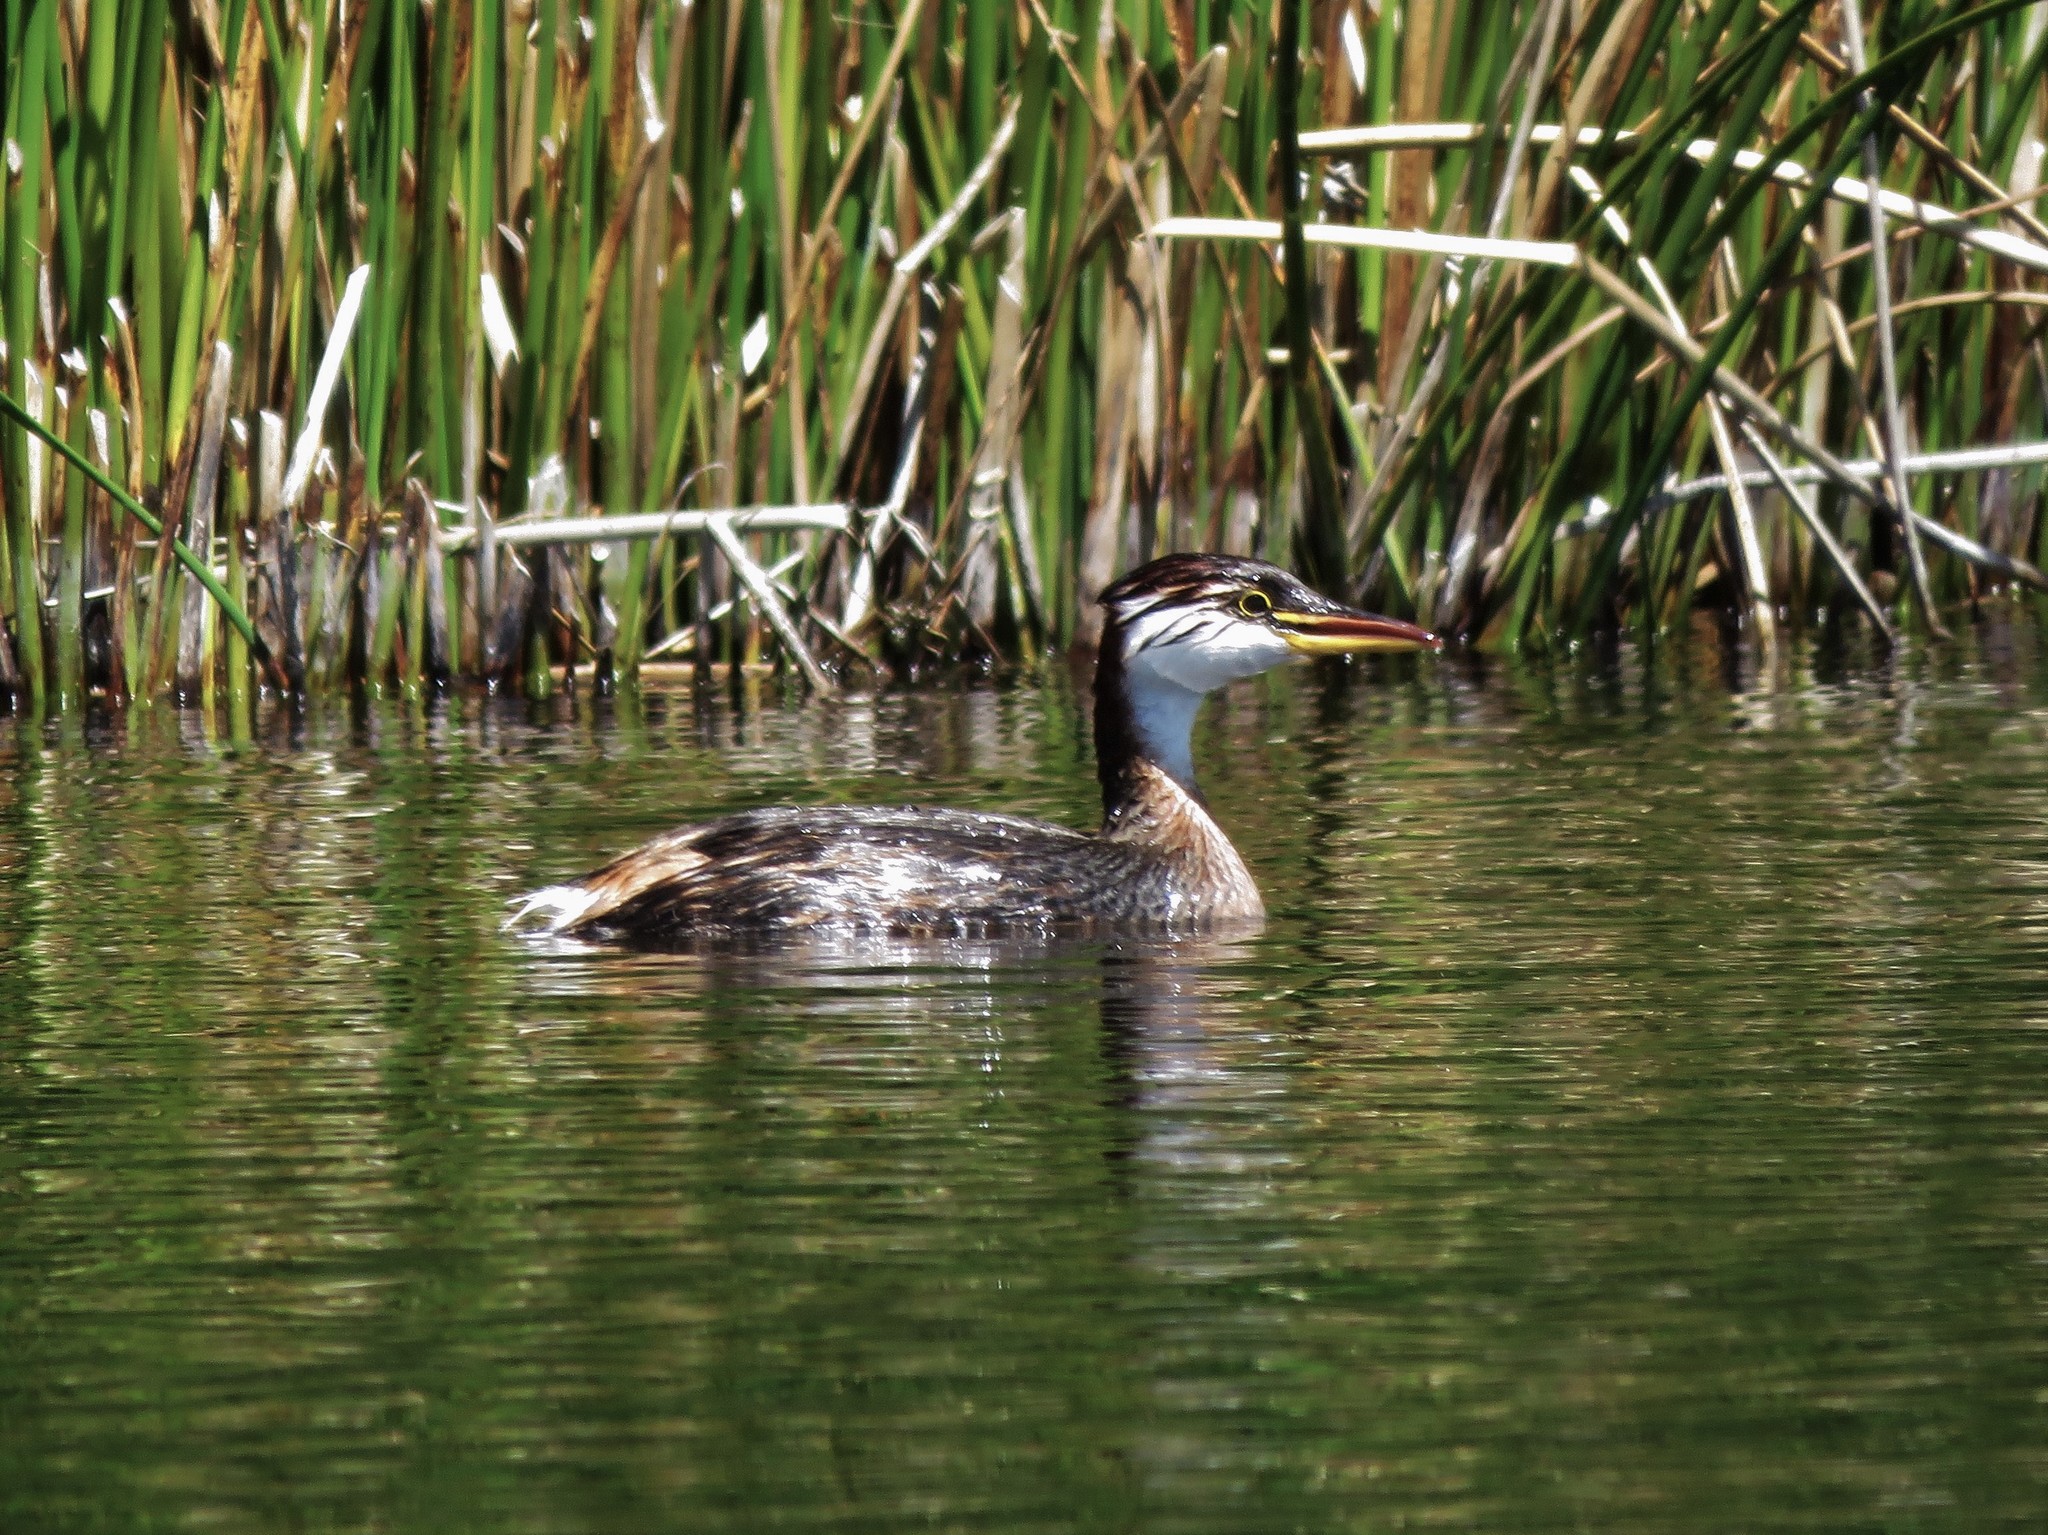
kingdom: Animalia
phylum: Chordata
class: Aves
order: Podicipediformes
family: Podicipedidae
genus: Rollandia
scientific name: Rollandia microptera
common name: Titicaca grebe
